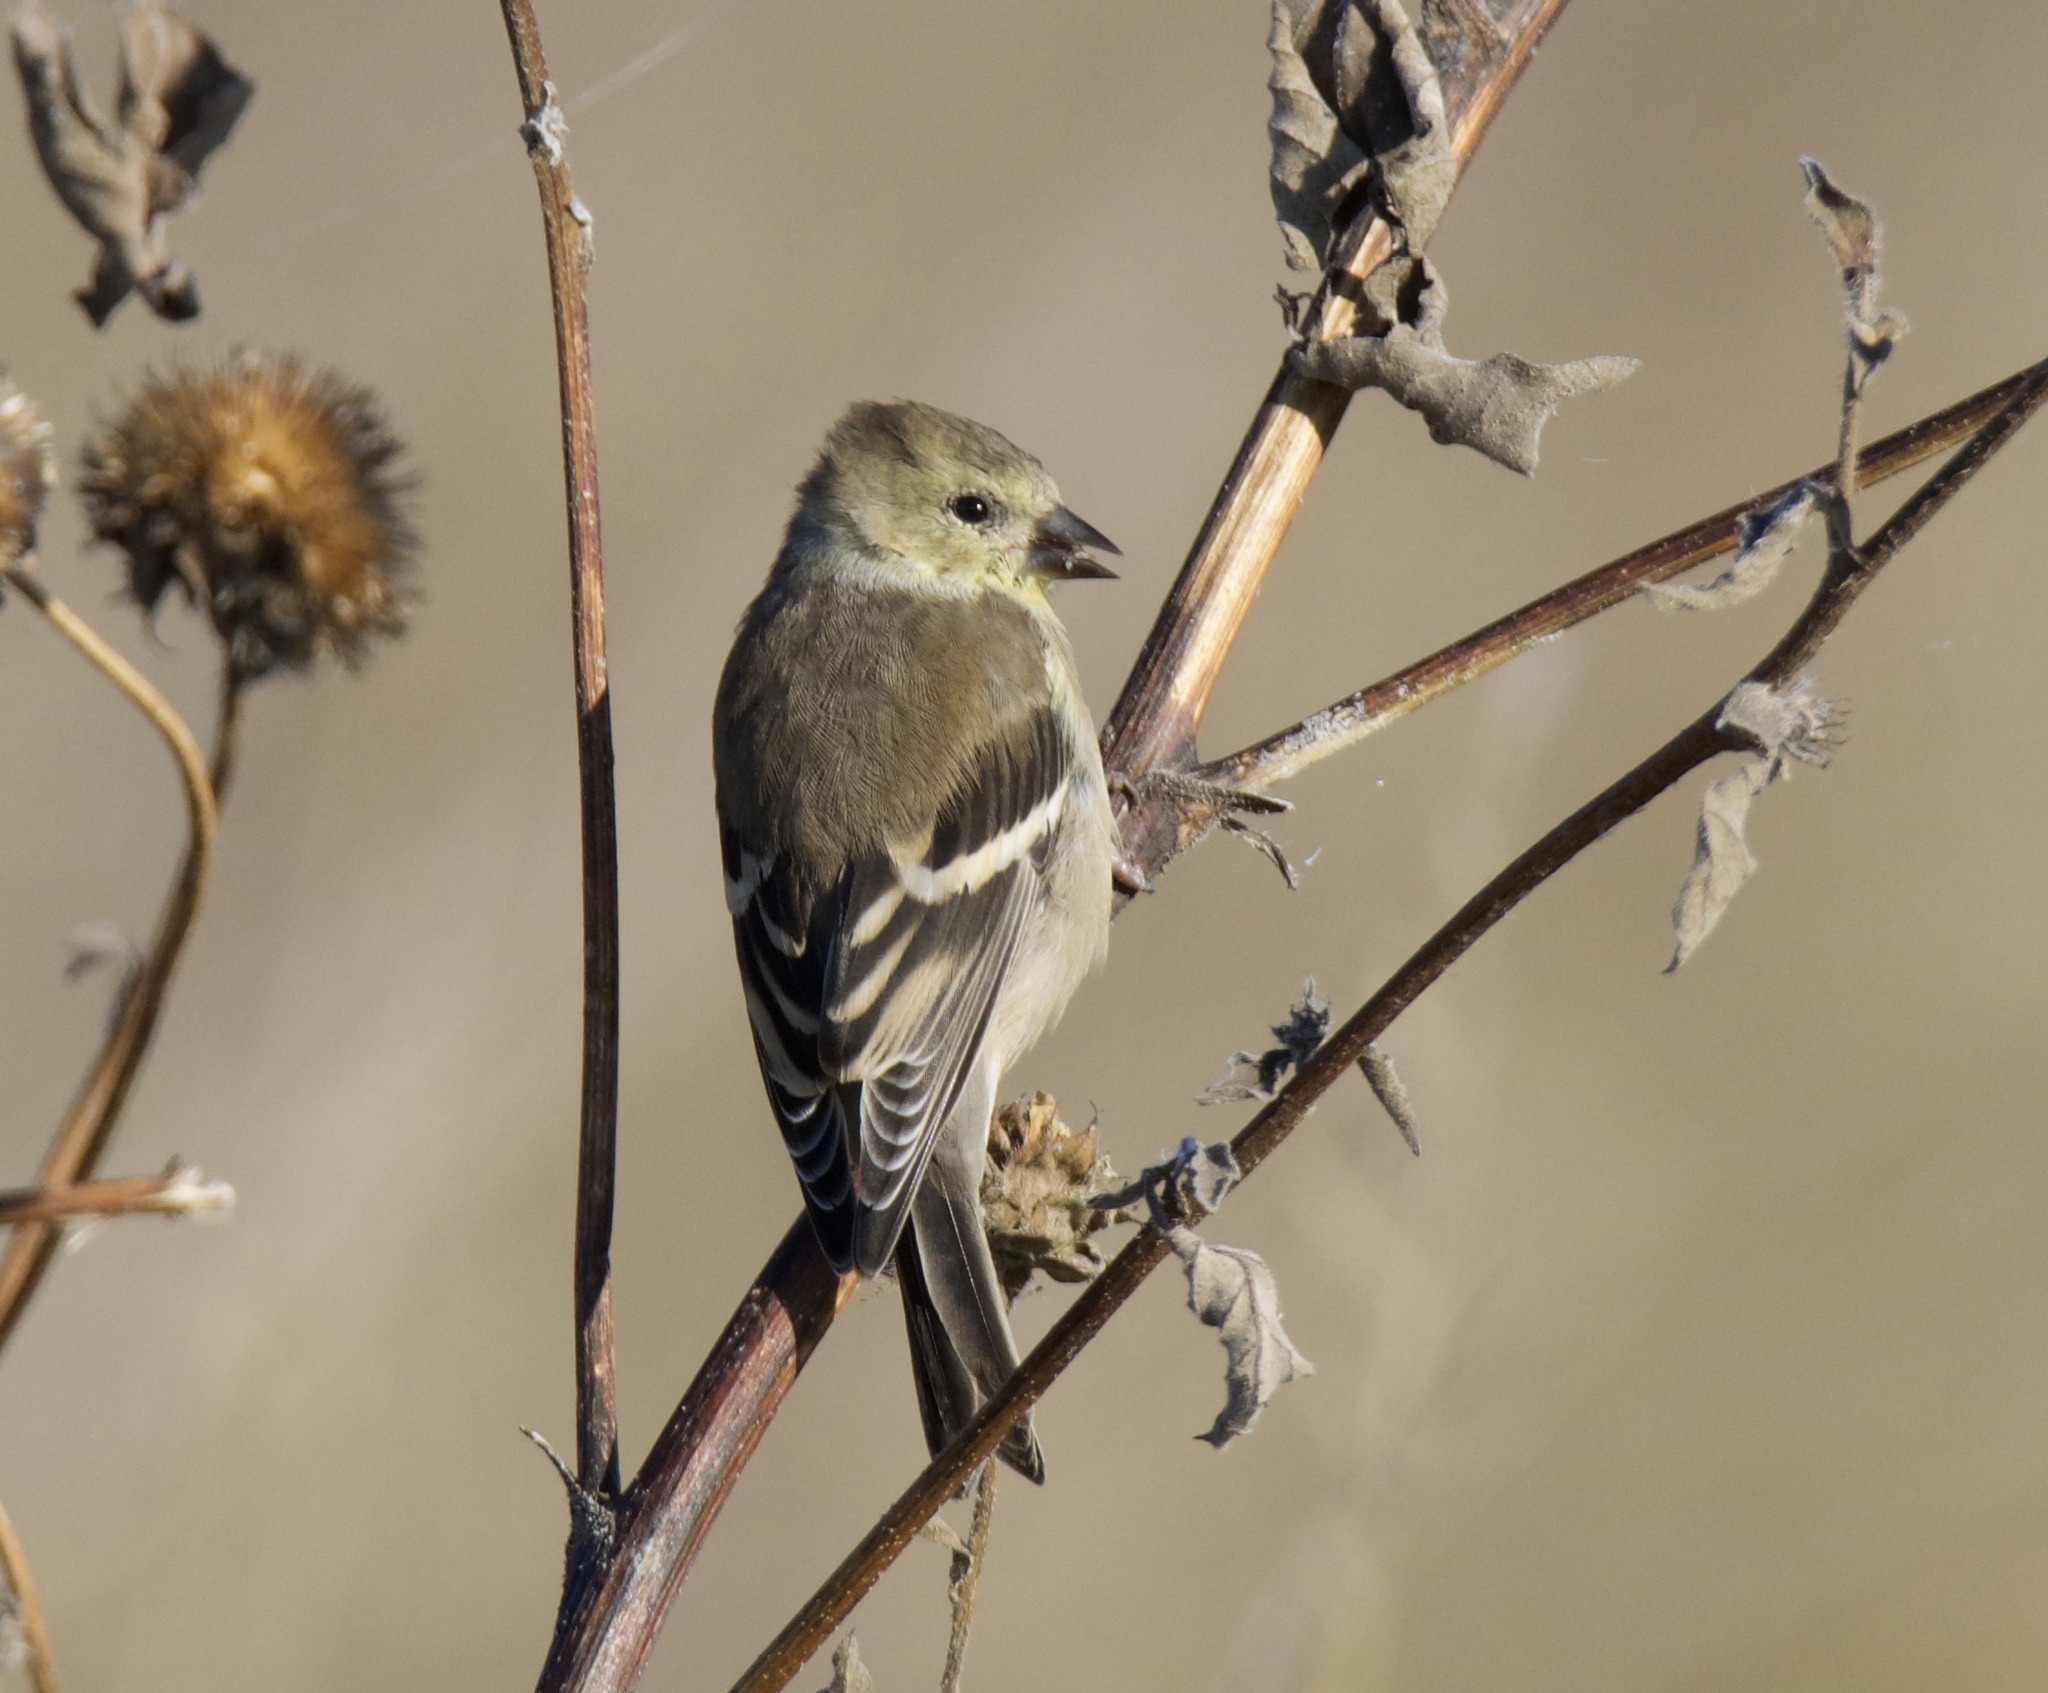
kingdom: Animalia
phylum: Chordata
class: Aves
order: Passeriformes
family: Fringillidae
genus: Spinus
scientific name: Spinus tristis
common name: American goldfinch
